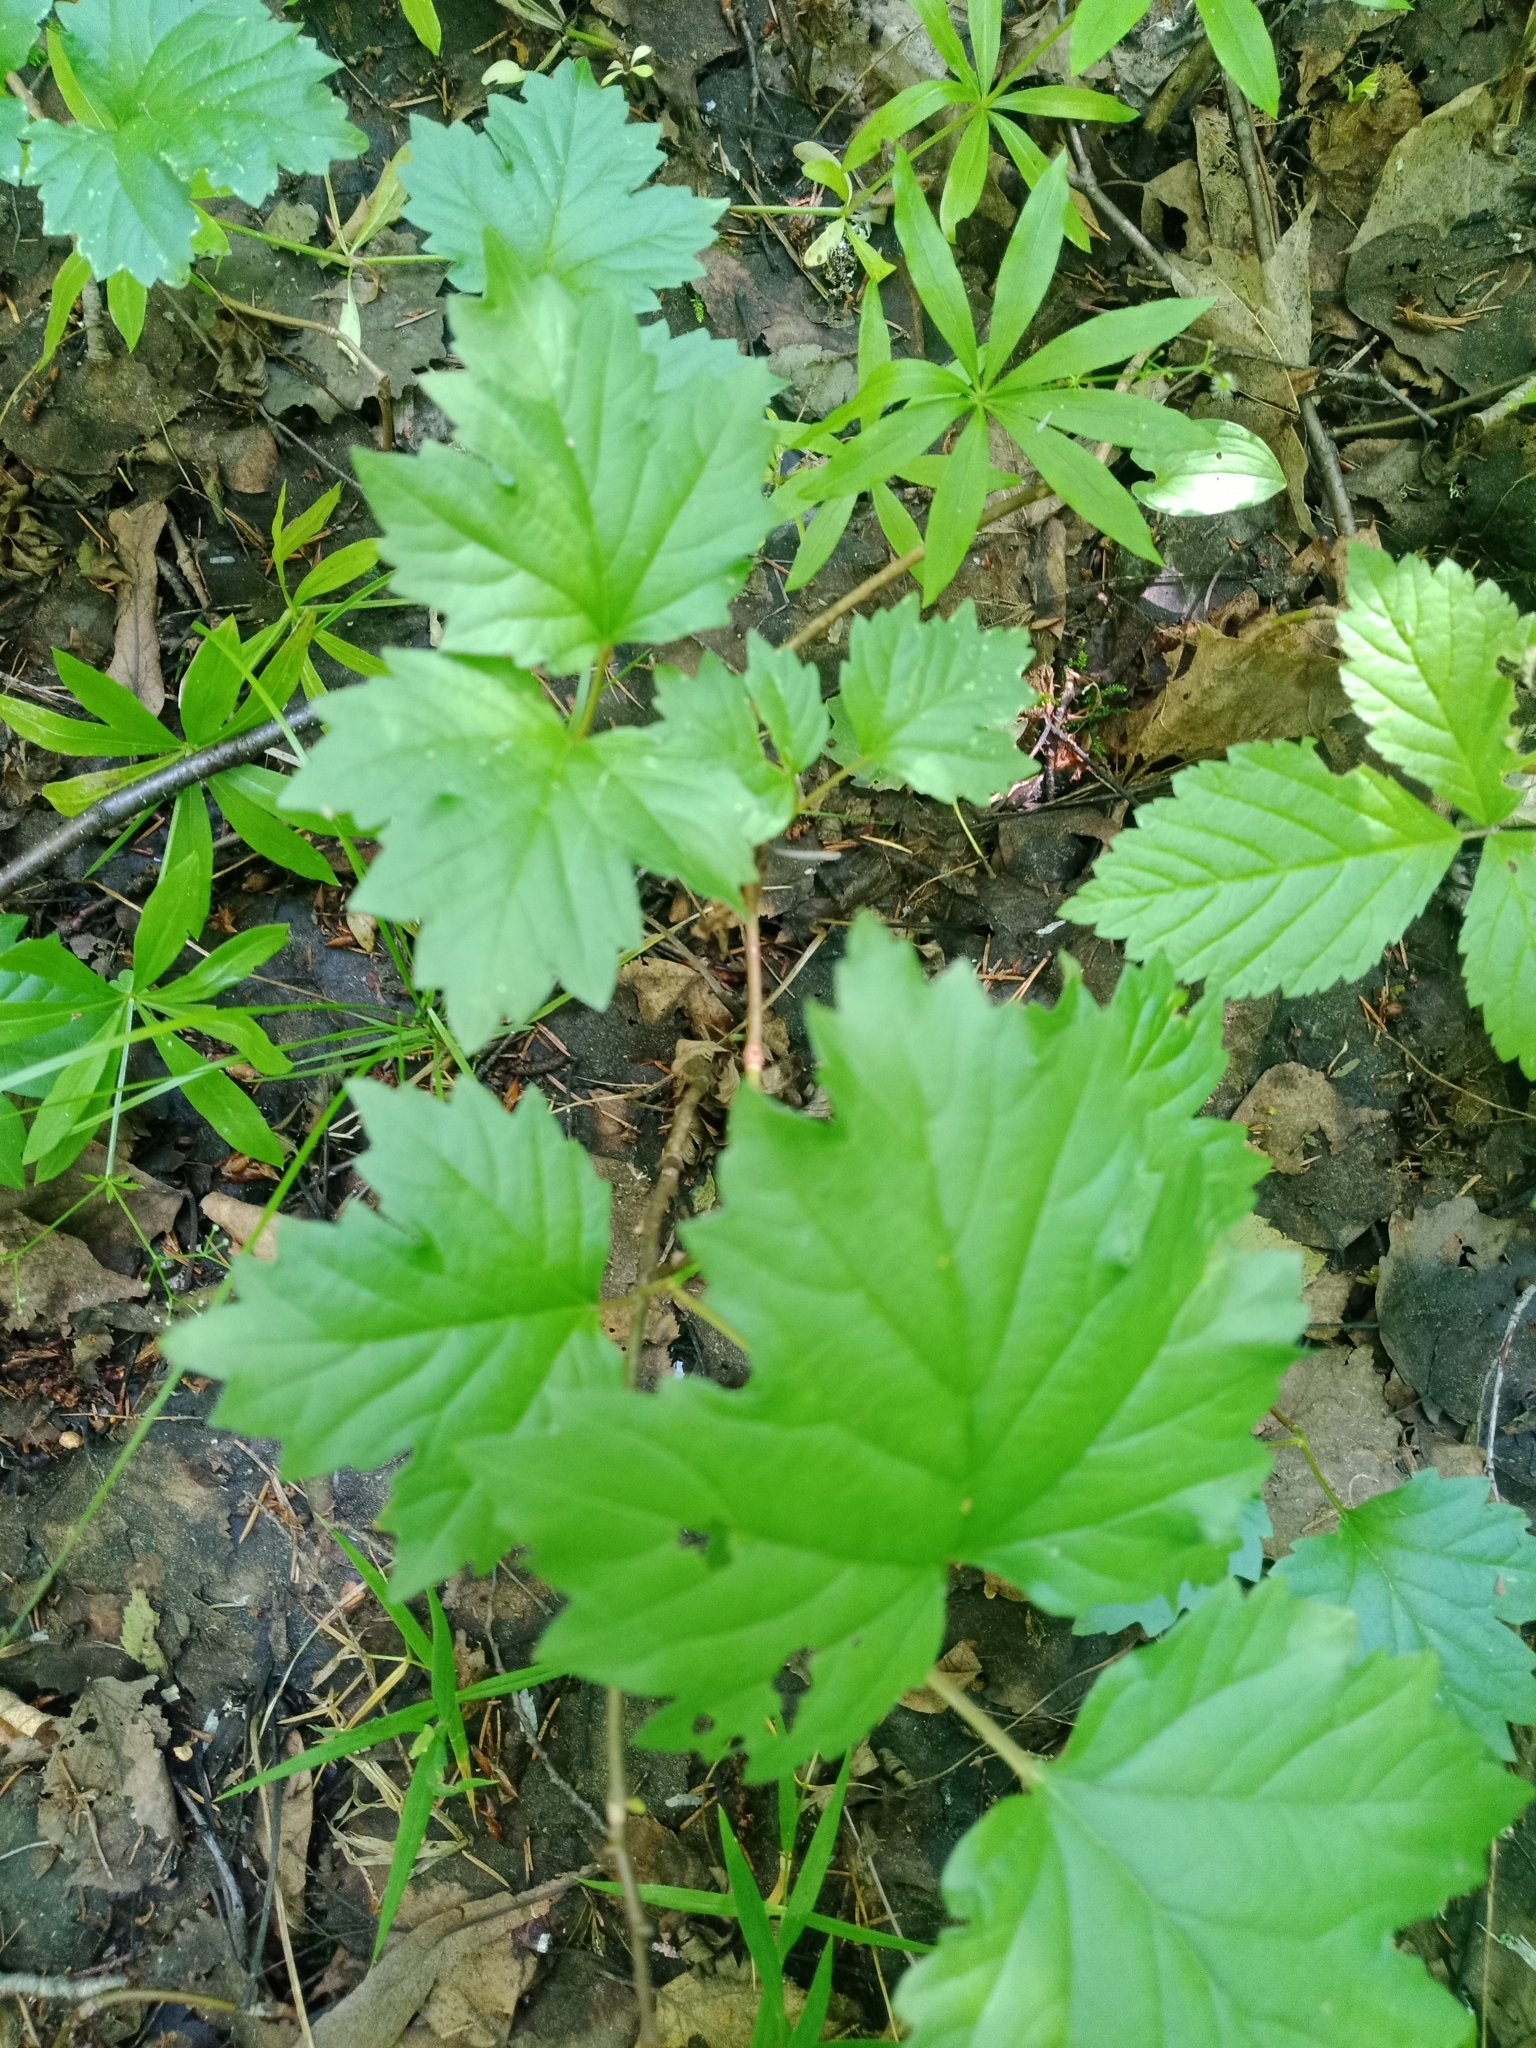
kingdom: Plantae
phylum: Tracheophyta
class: Magnoliopsida
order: Dipsacales
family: Viburnaceae
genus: Viburnum
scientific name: Viburnum opulus
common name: Guelder-rose
